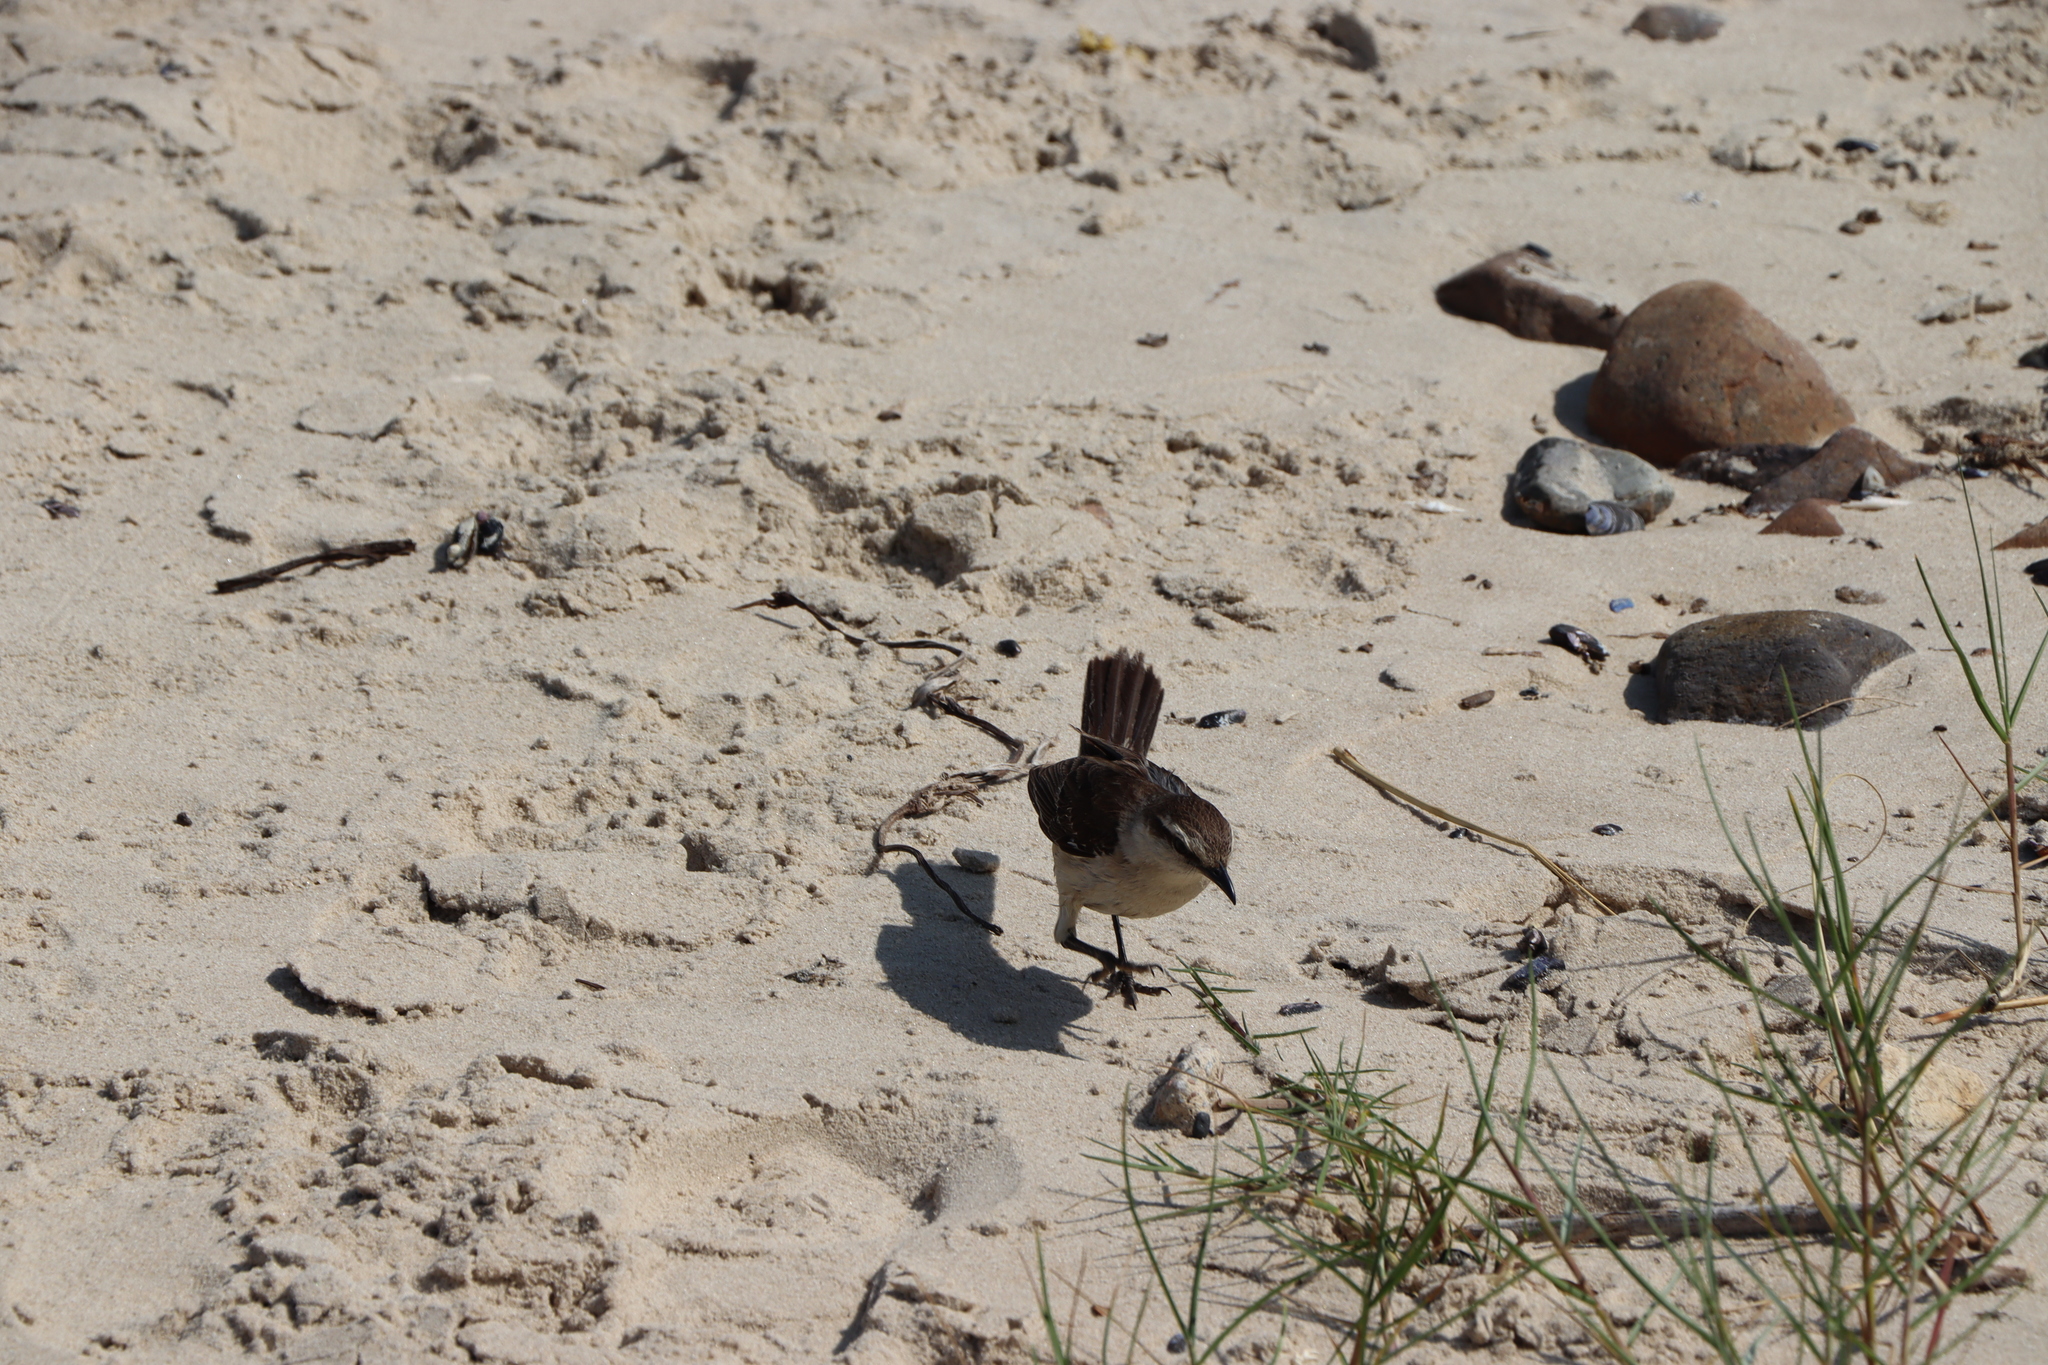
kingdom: Animalia
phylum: Chordata
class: Aves
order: Passeriformes
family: Mimidae
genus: Mimus
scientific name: Mimus saturninus
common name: Chalk-browed mockingbird
